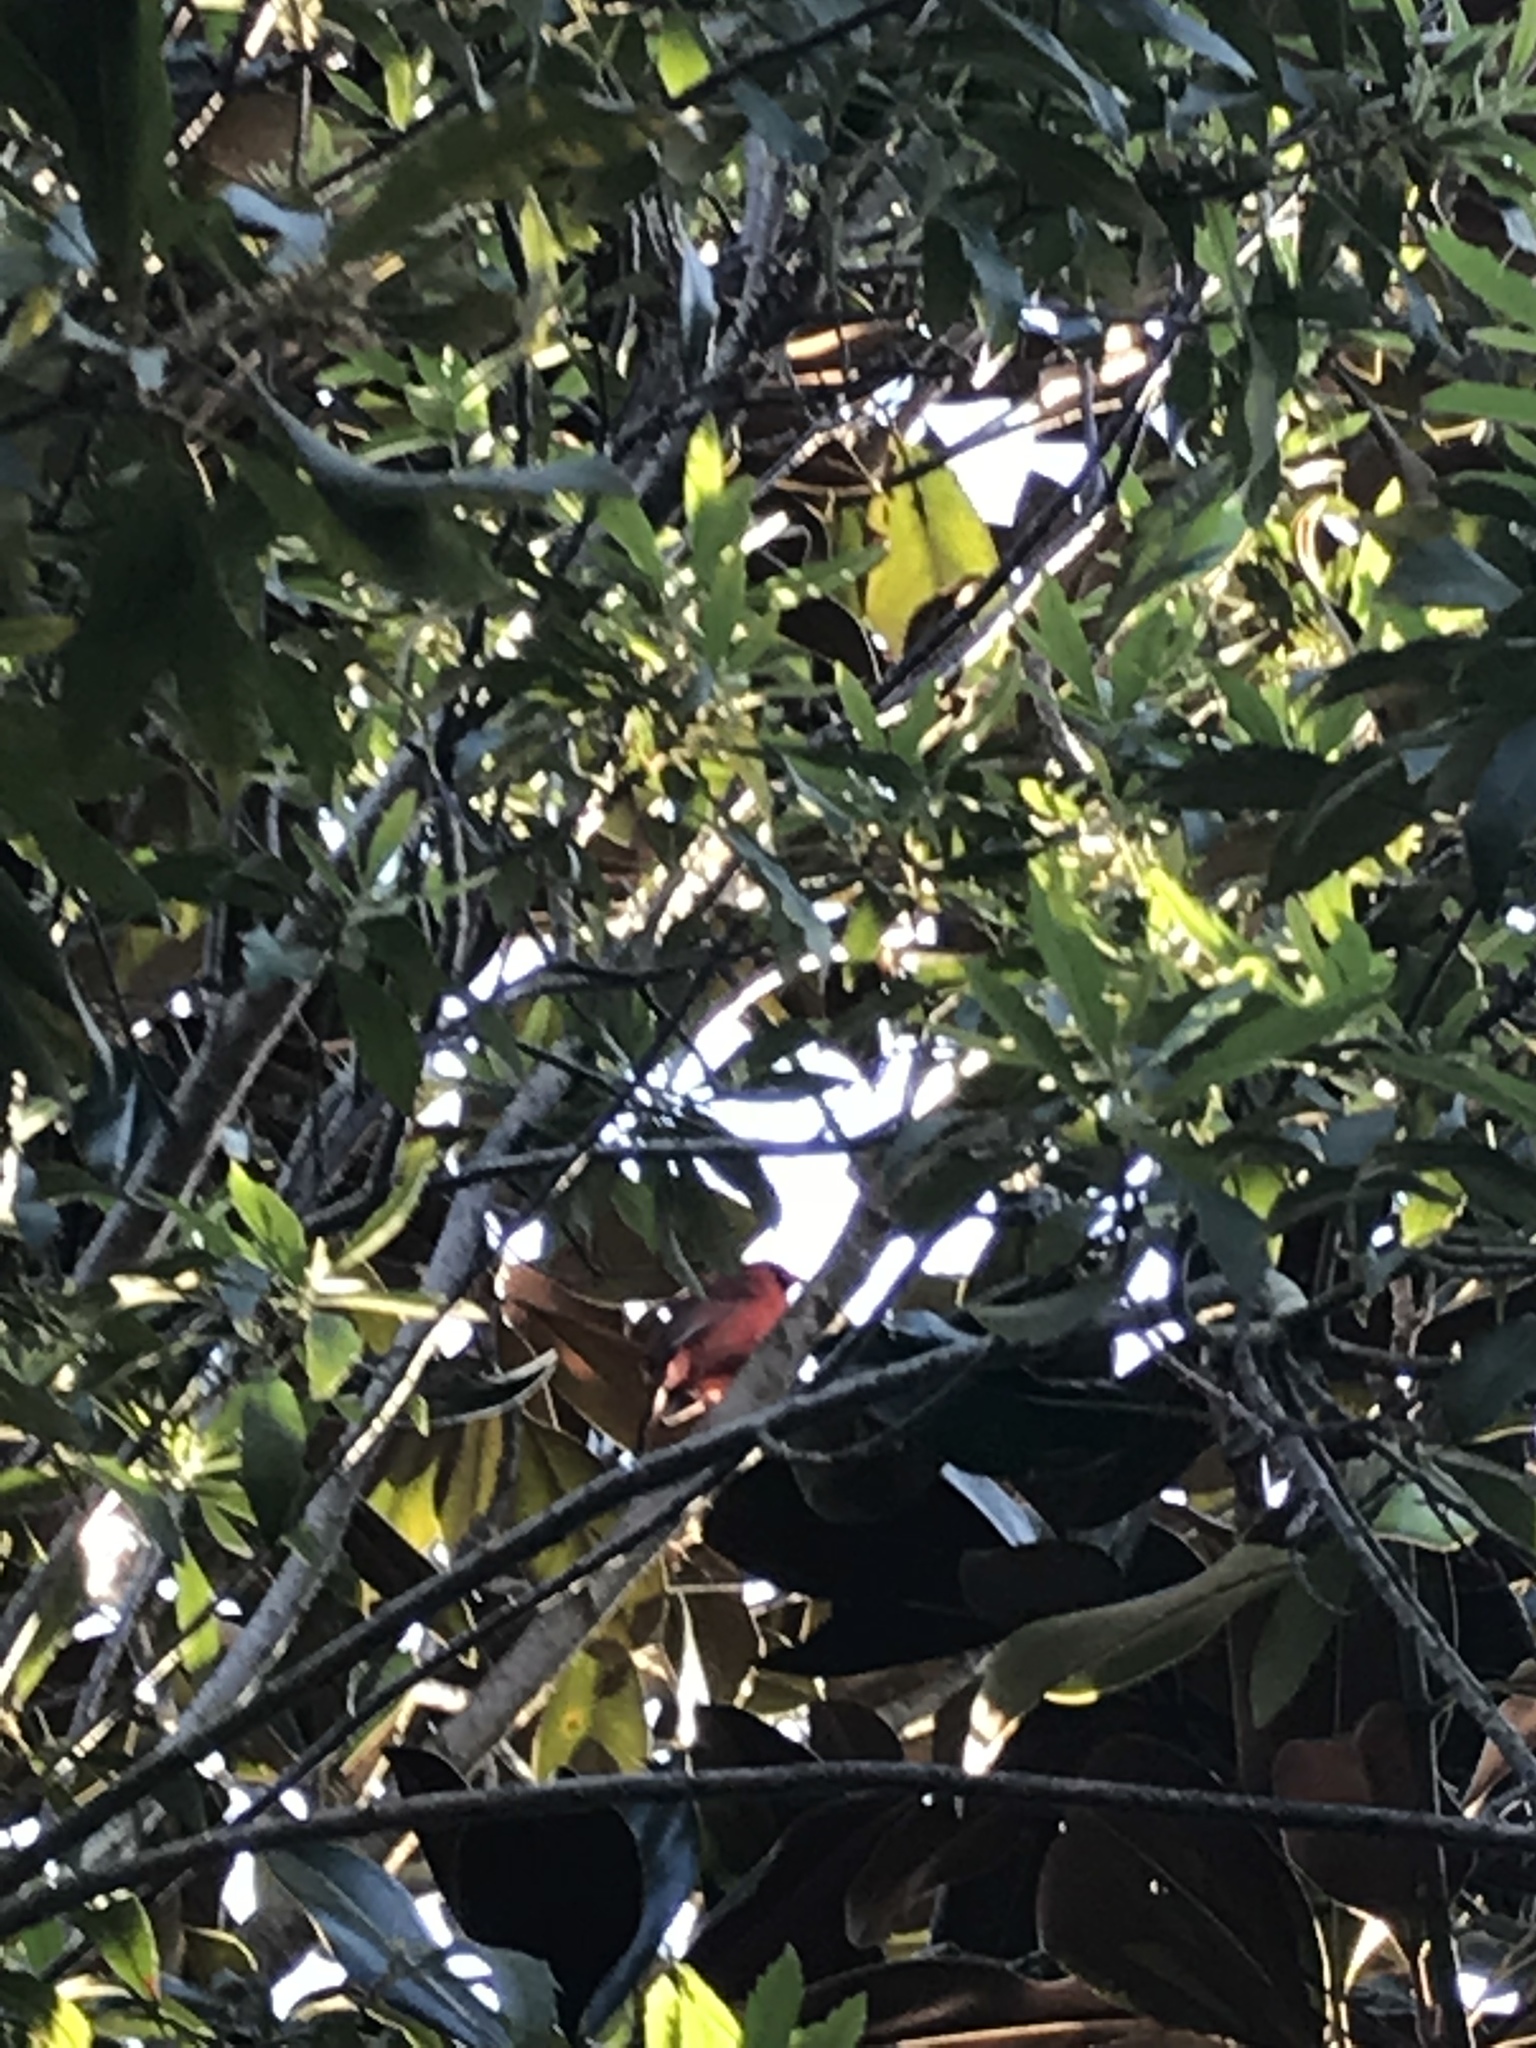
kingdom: Animalia
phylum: Chordata
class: Aves
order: Passeriformes
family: Cardinalidae
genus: Cardinalis
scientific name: Cardinalis cardinalis
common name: Northern cardinal
